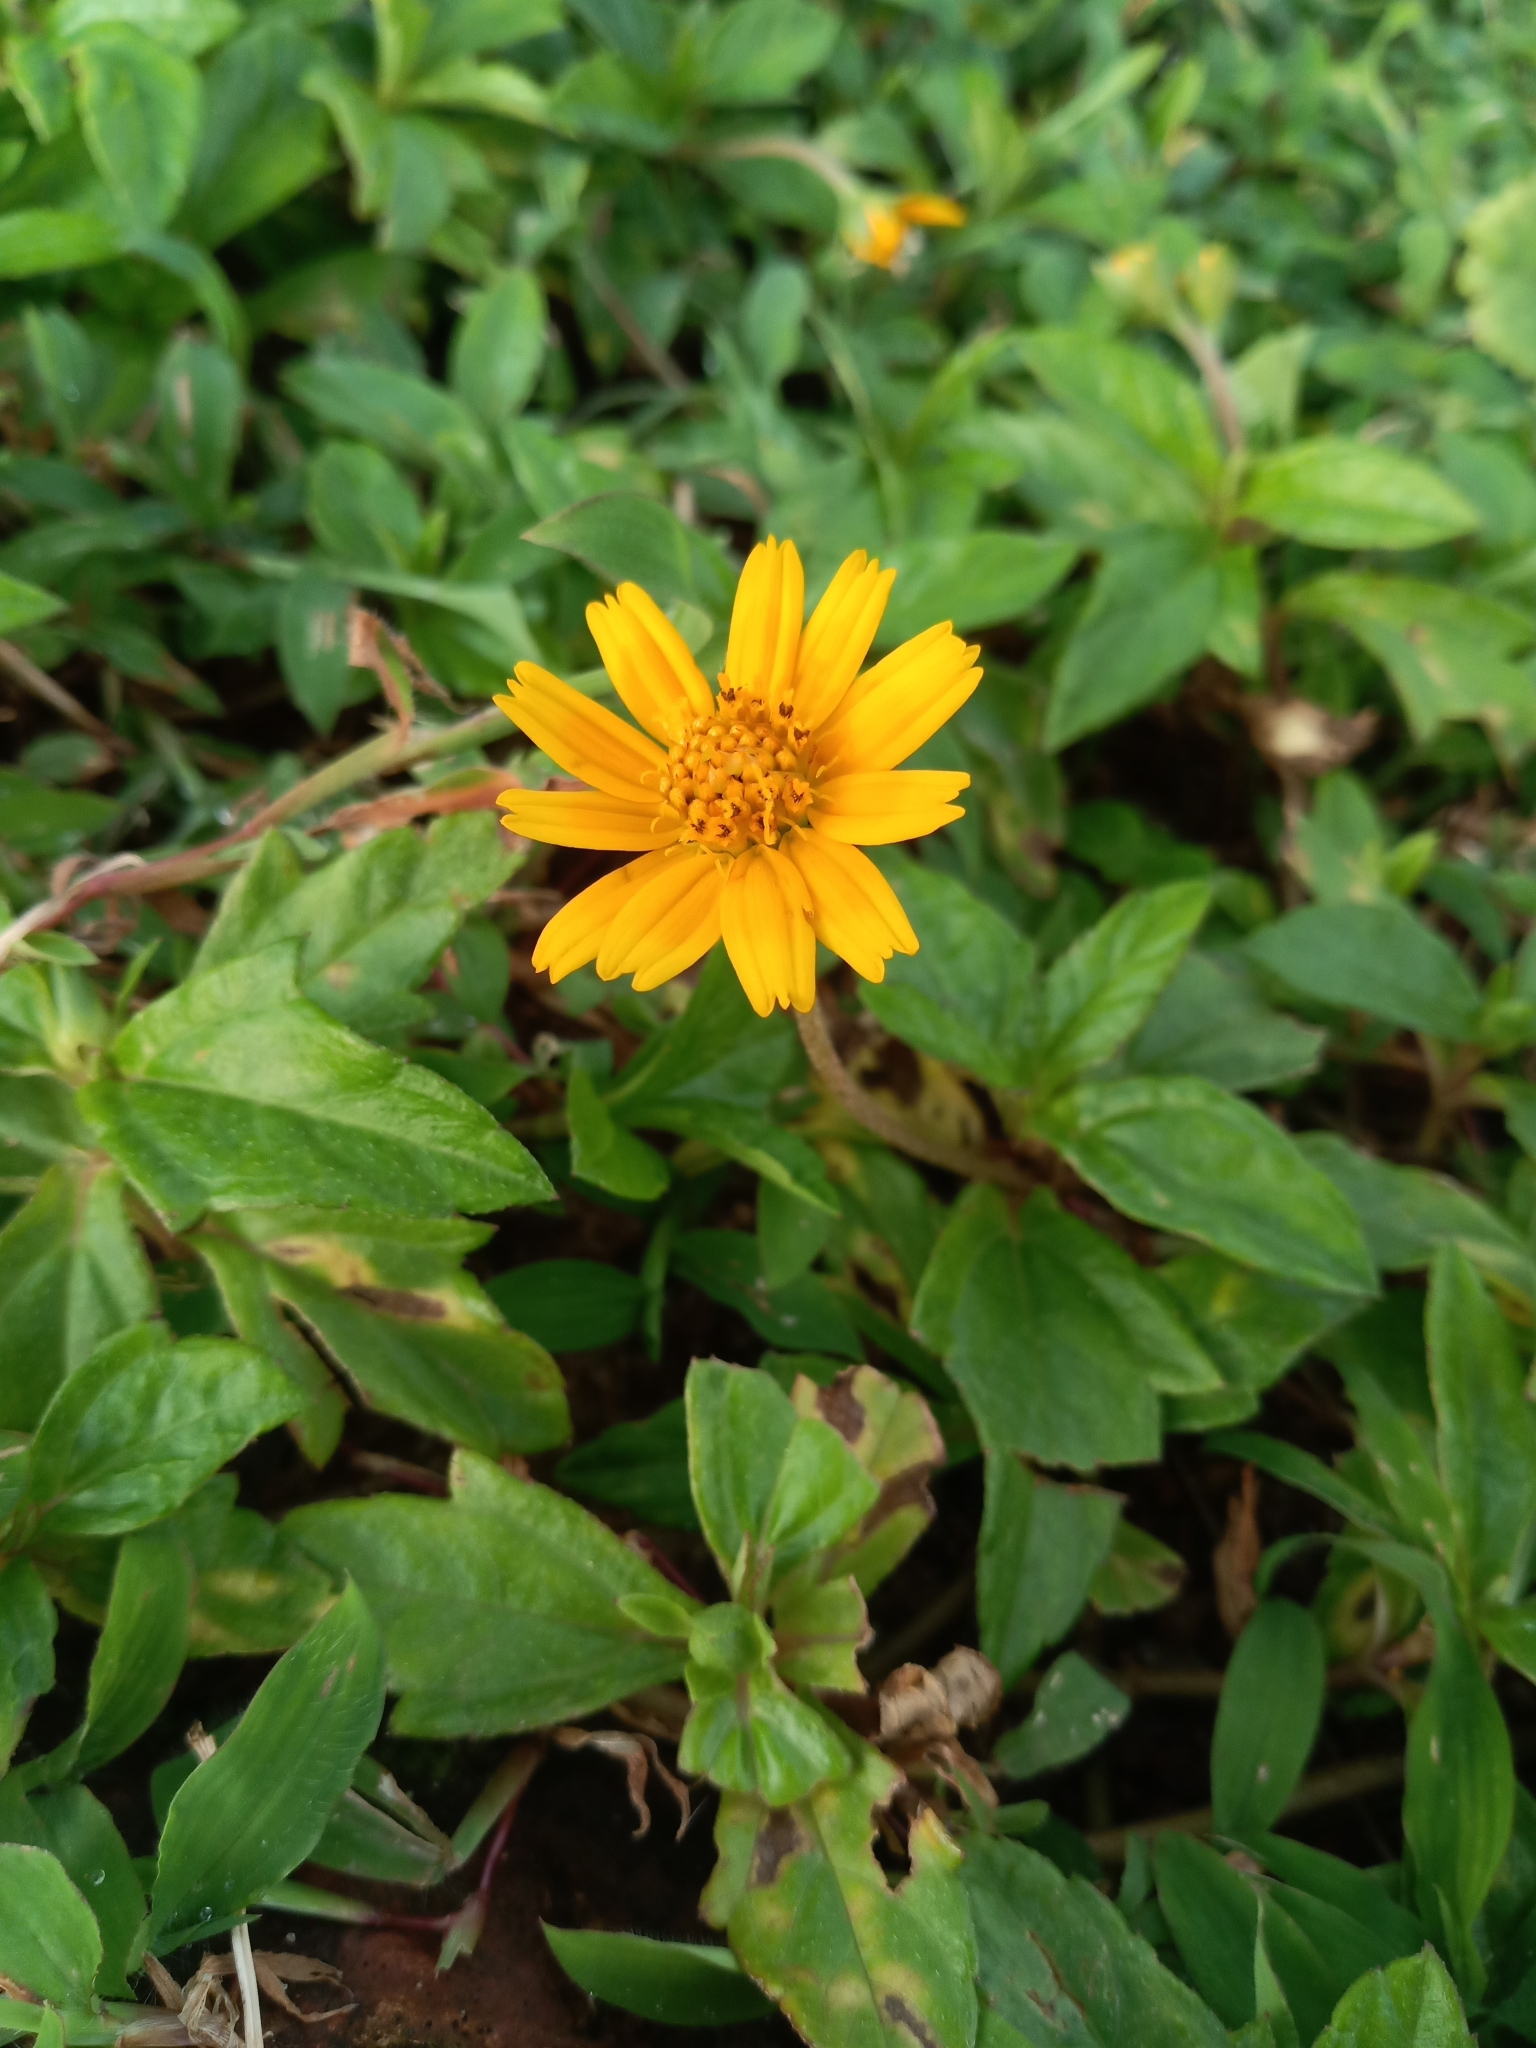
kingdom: Plantae
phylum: Tracheophyta
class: Magnoliopsida
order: Asterales
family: Asteraceae
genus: Sphagneticola
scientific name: Sphagneticola trilobata
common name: Bay biscayne creeping-oxeye
